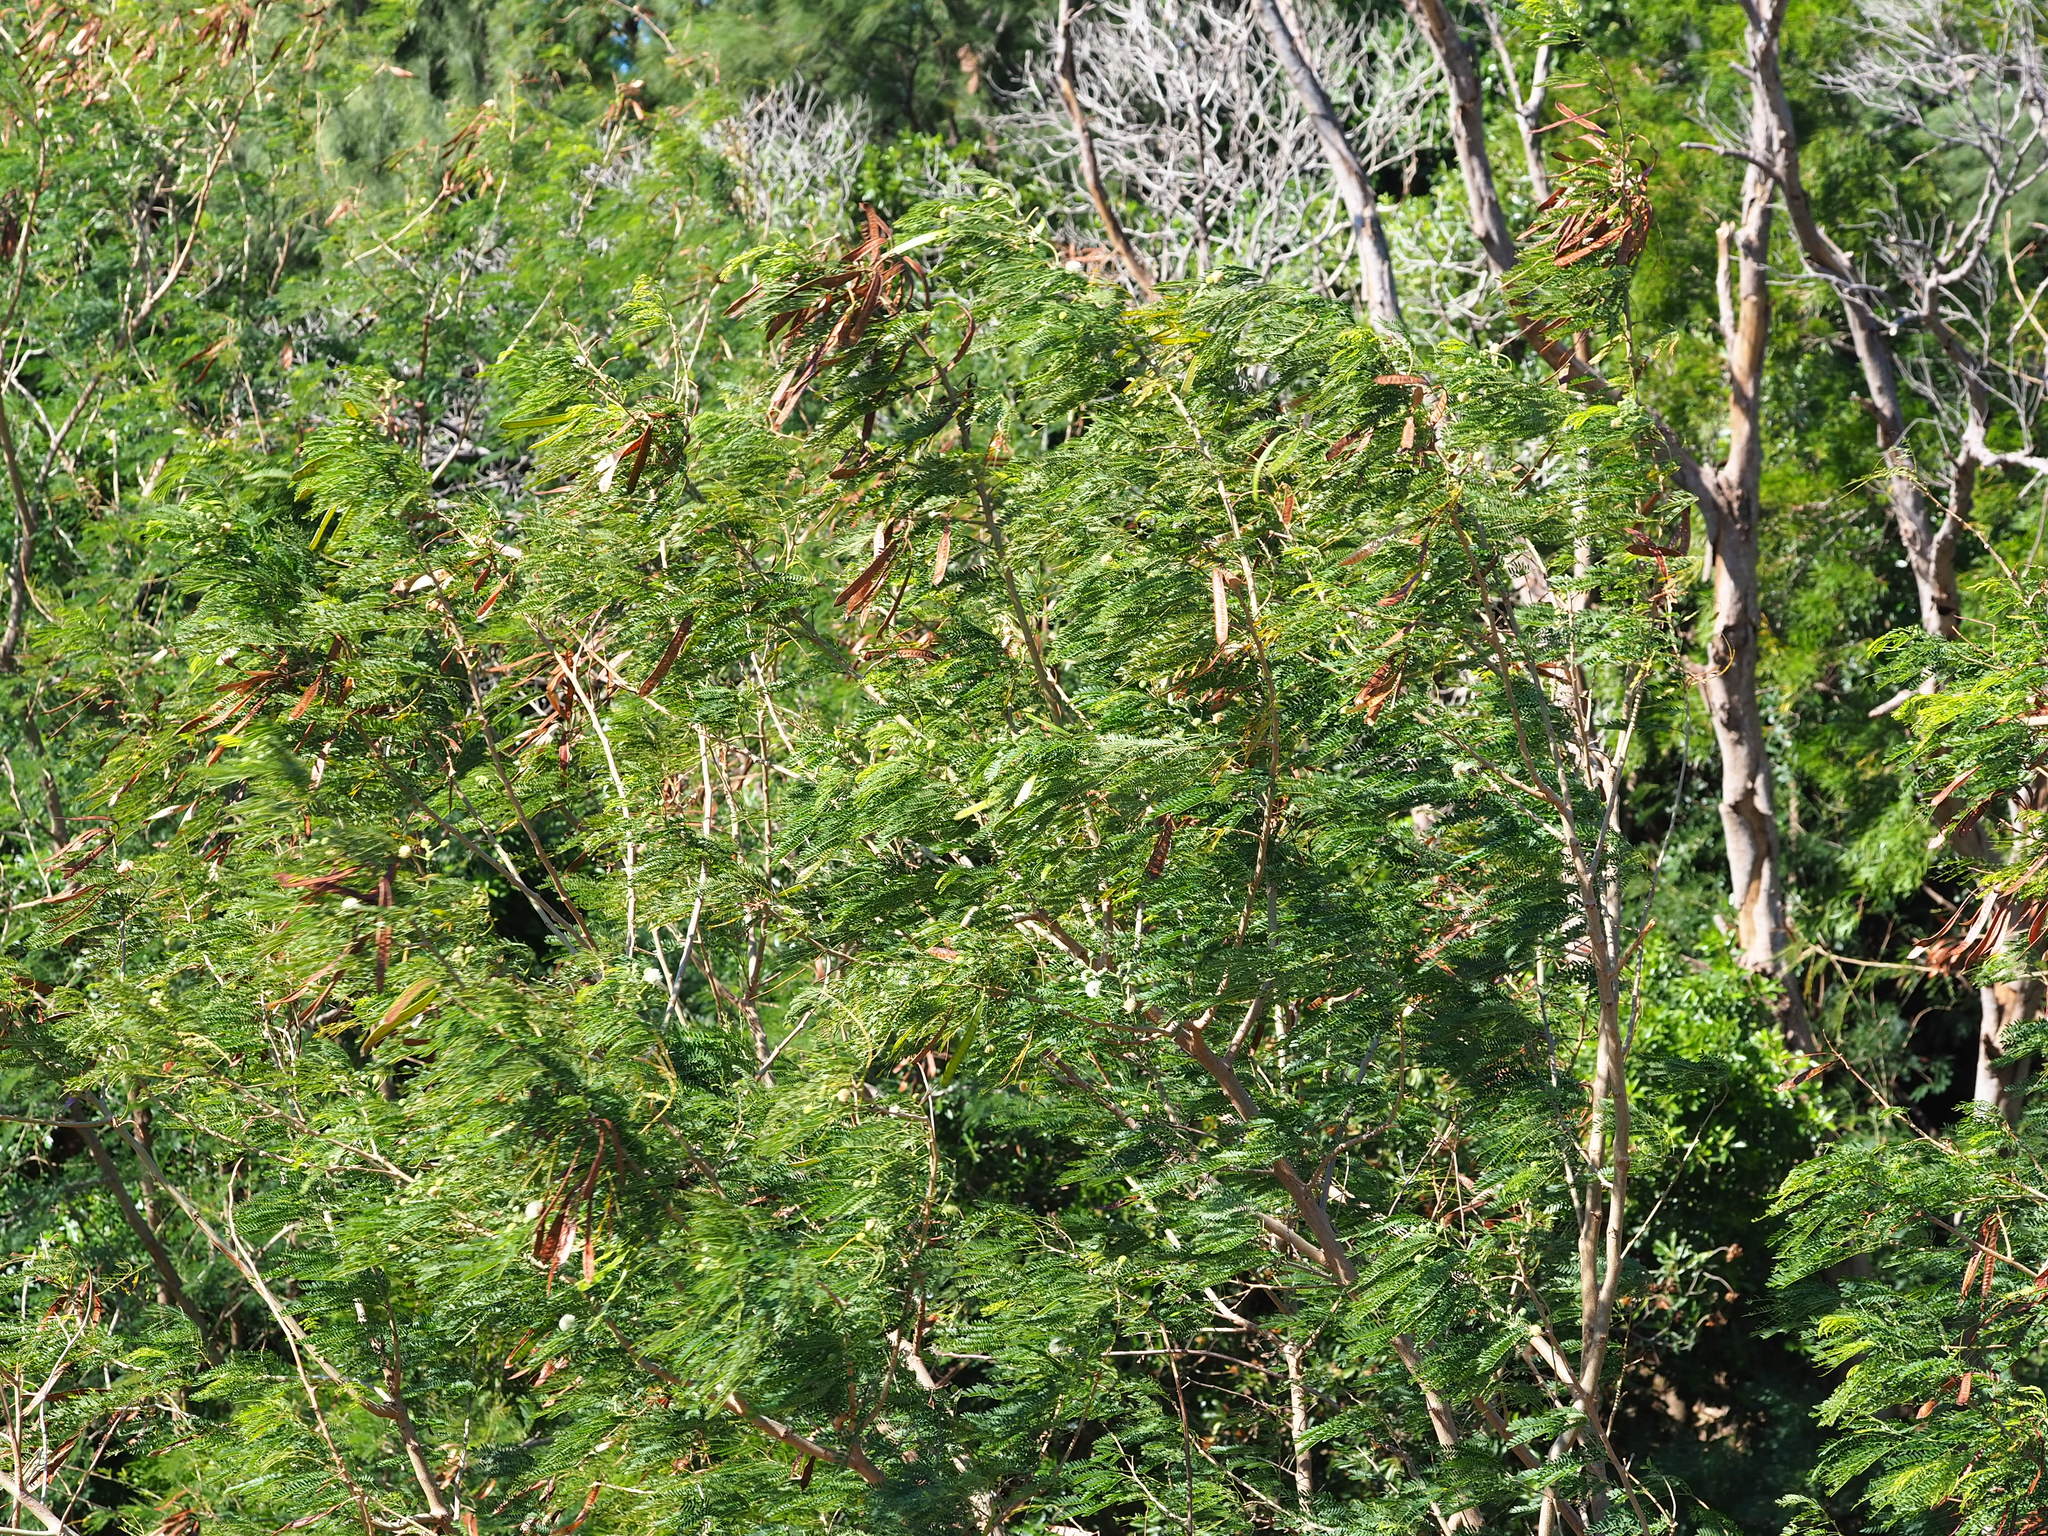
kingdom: Plantae
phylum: Tracheophyta
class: Magnoliopsida
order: Fabales
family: Fabaceae
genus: Leucaena
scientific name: Leucaena leucocephala
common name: White leadtree
